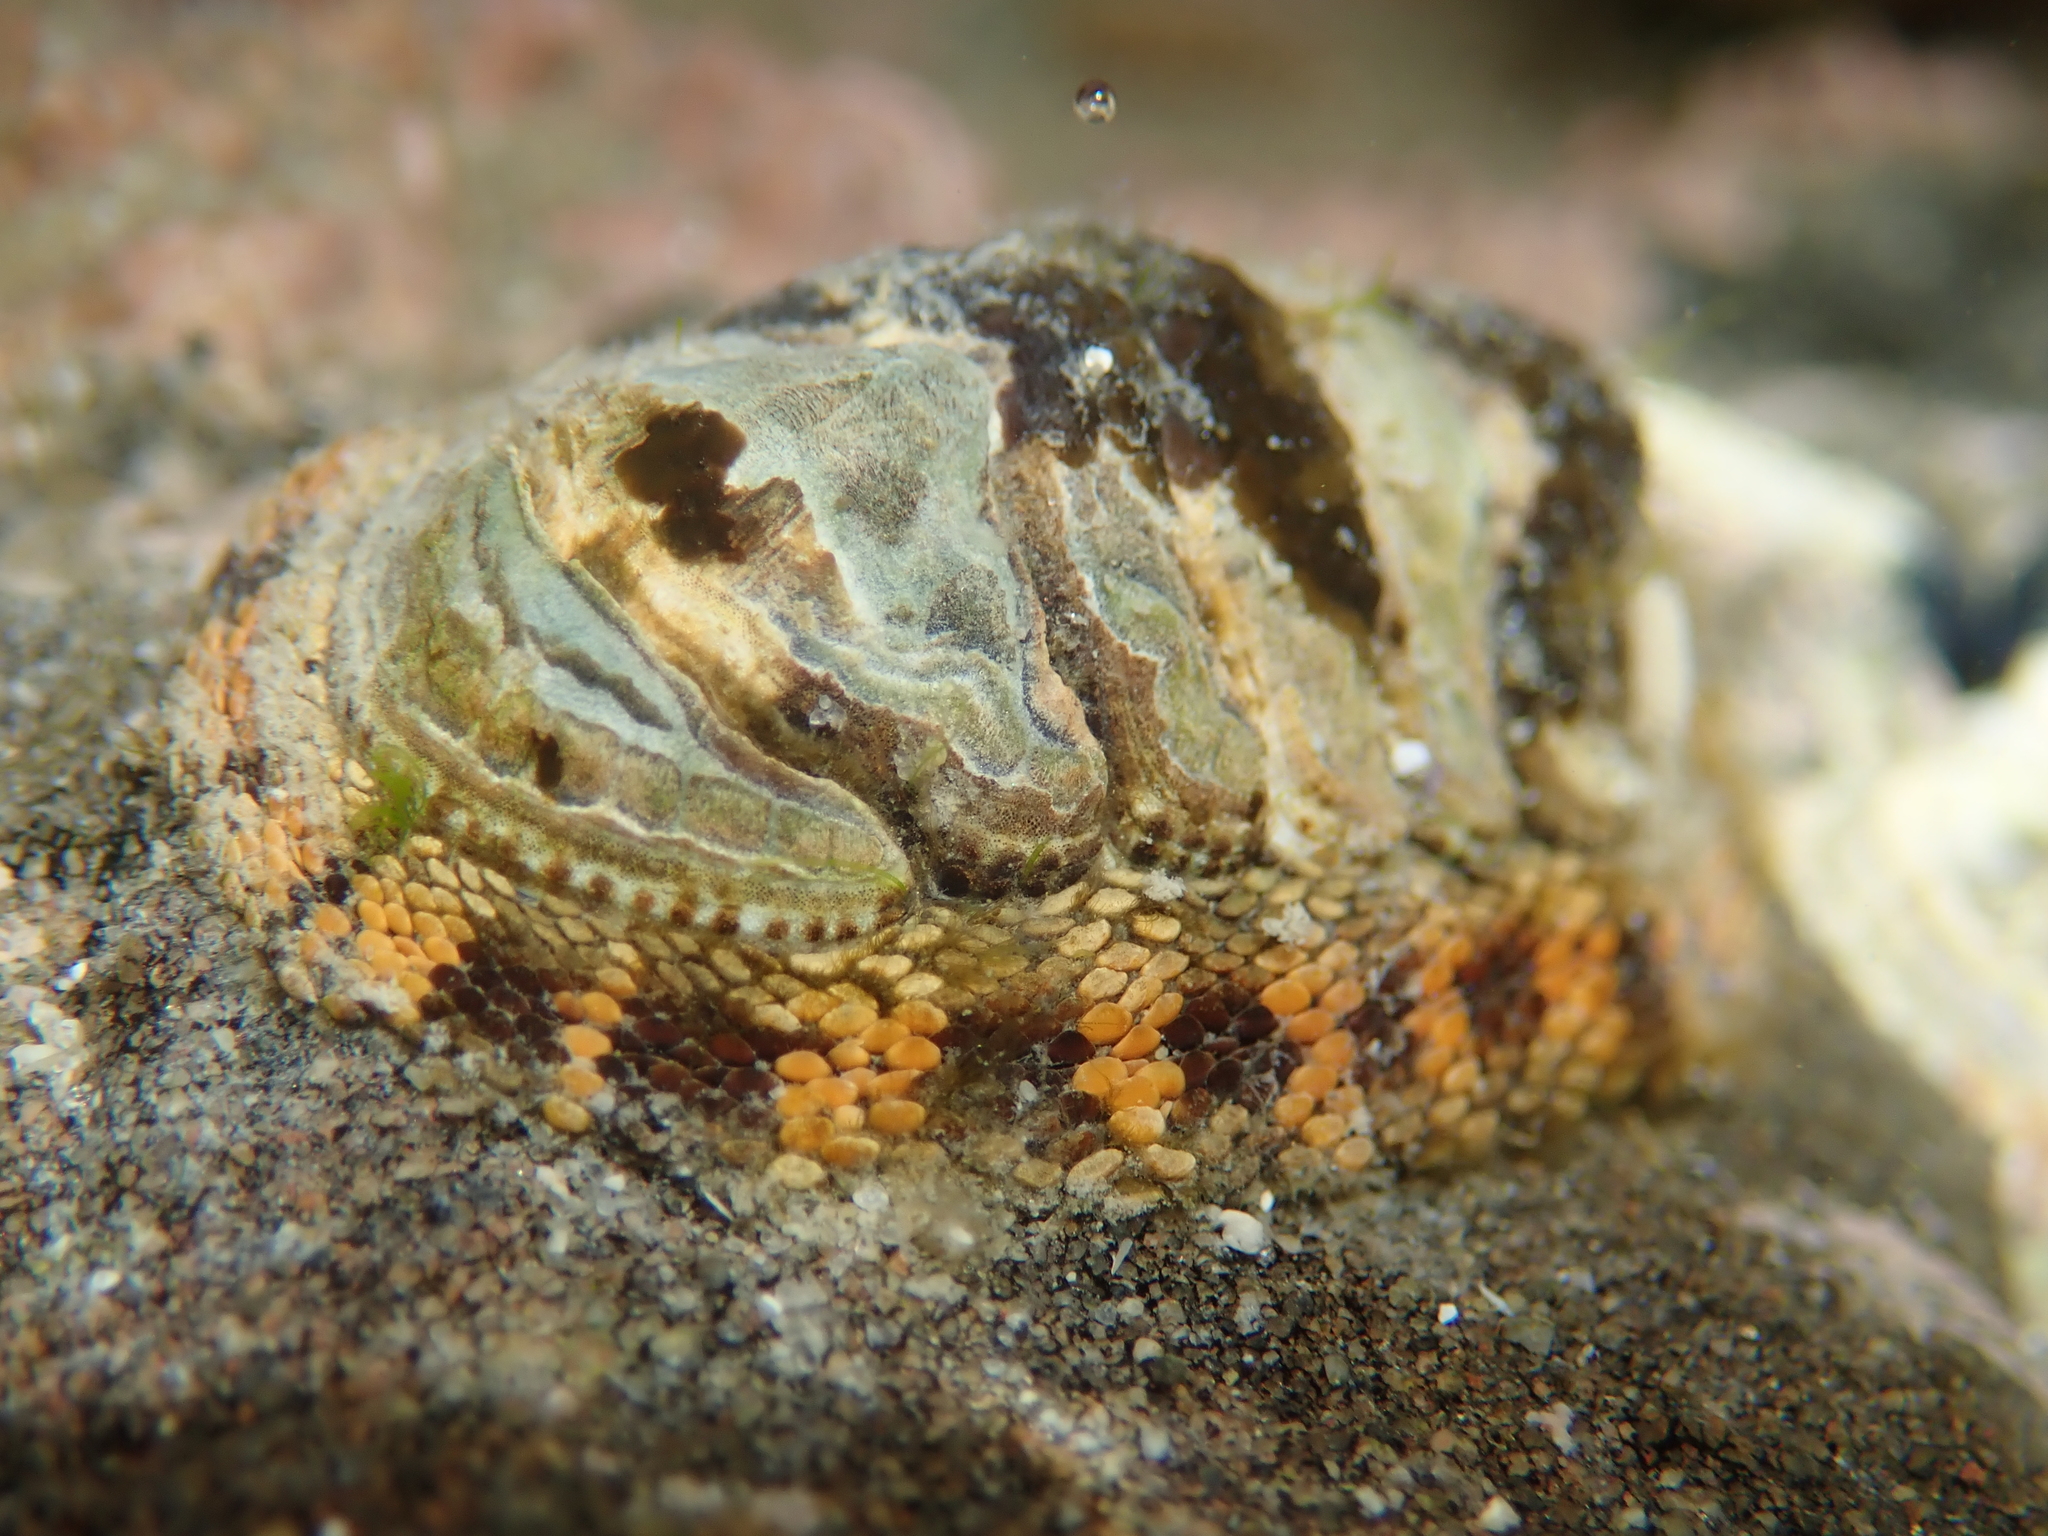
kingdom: Animalia
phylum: Mollusca
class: Polyplacophora
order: Chitonida
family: Chitonidae
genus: Sypharochiton
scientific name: Sypharochiton pelliserpentis
